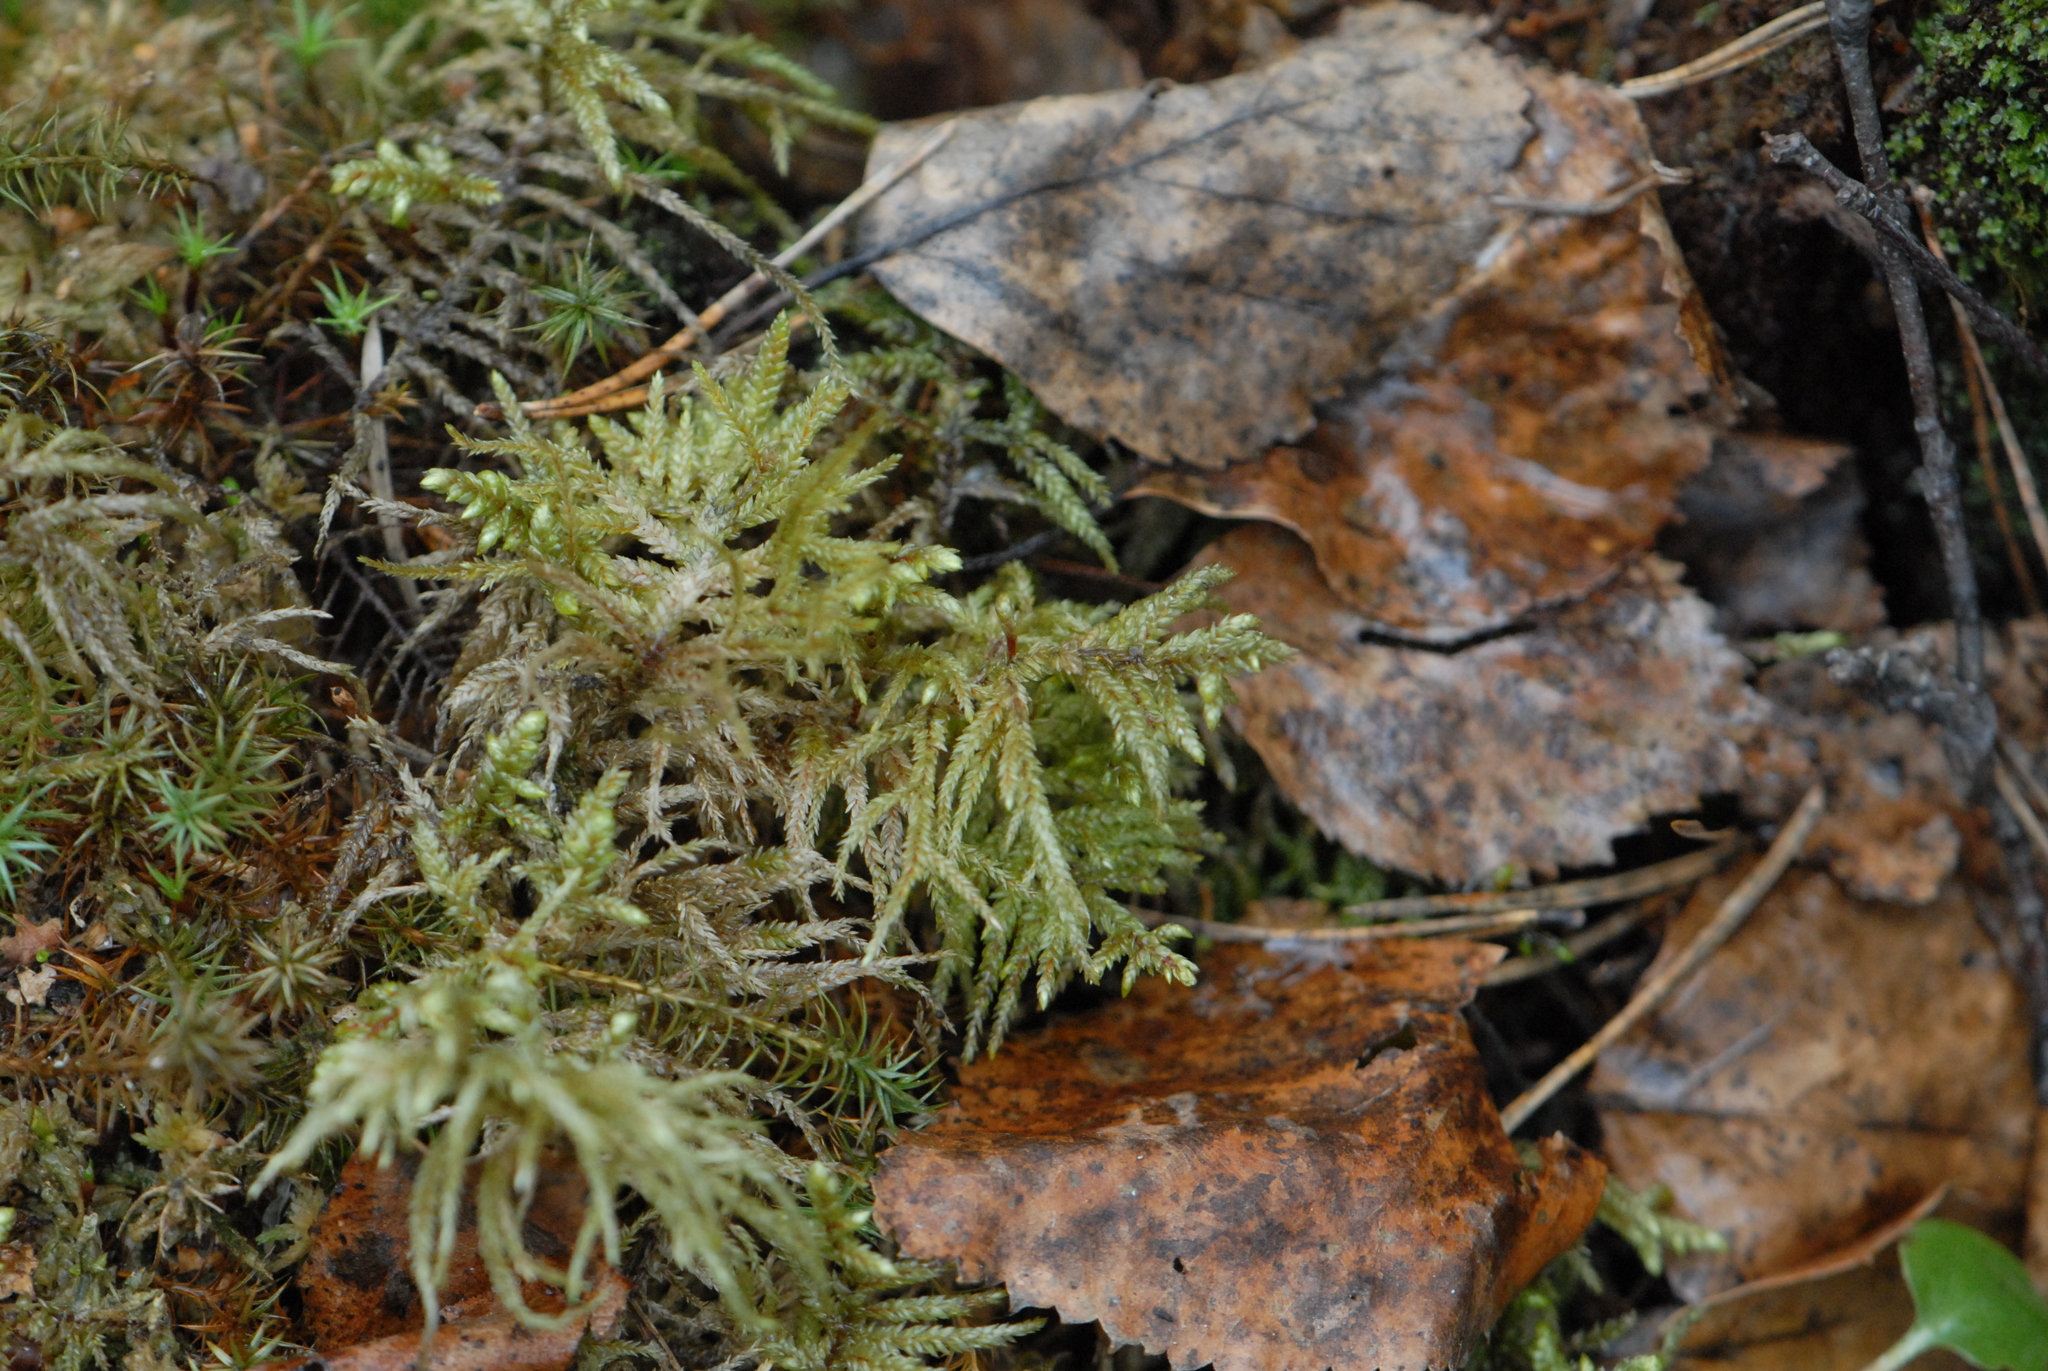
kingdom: Plantae
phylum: Bryophyta
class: Bryopsida
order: Hypnales
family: Hylocomiaceae
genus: Pleurozium
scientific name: Pleurozium schreberi
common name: Red-stemmed feather moss
